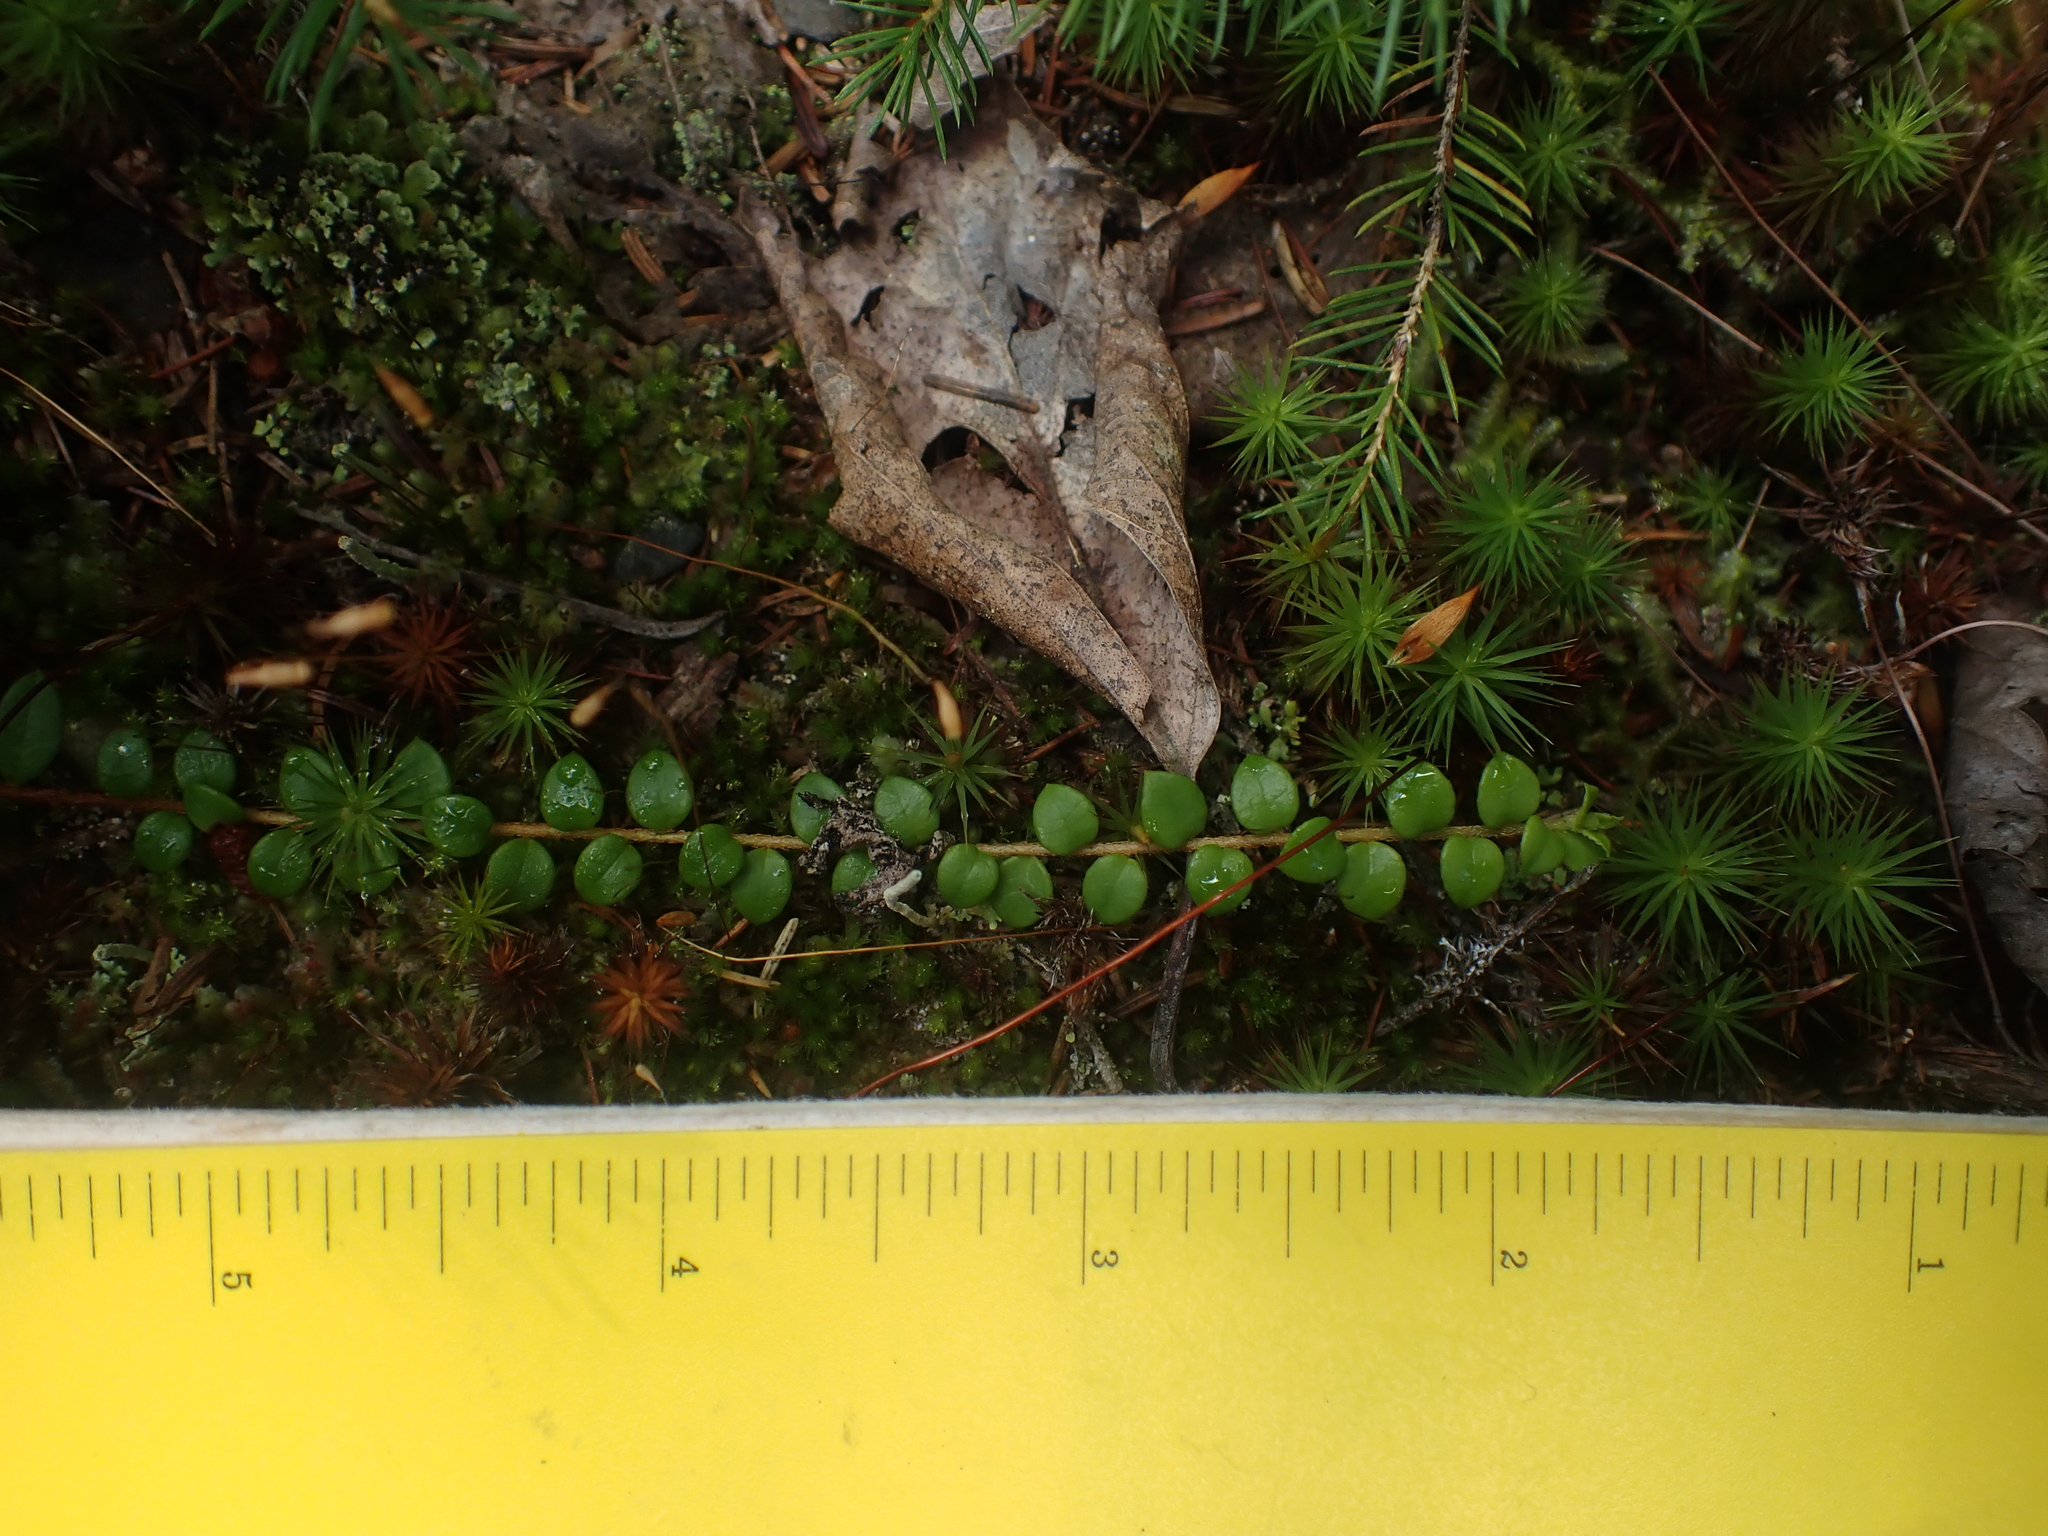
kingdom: Plantae
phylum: Tracheophyta
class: Magnoliopsida
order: Ericales
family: Ericaceae
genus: Gaultheria
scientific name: Gaultheria hispidula
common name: Cancer wintergreen
